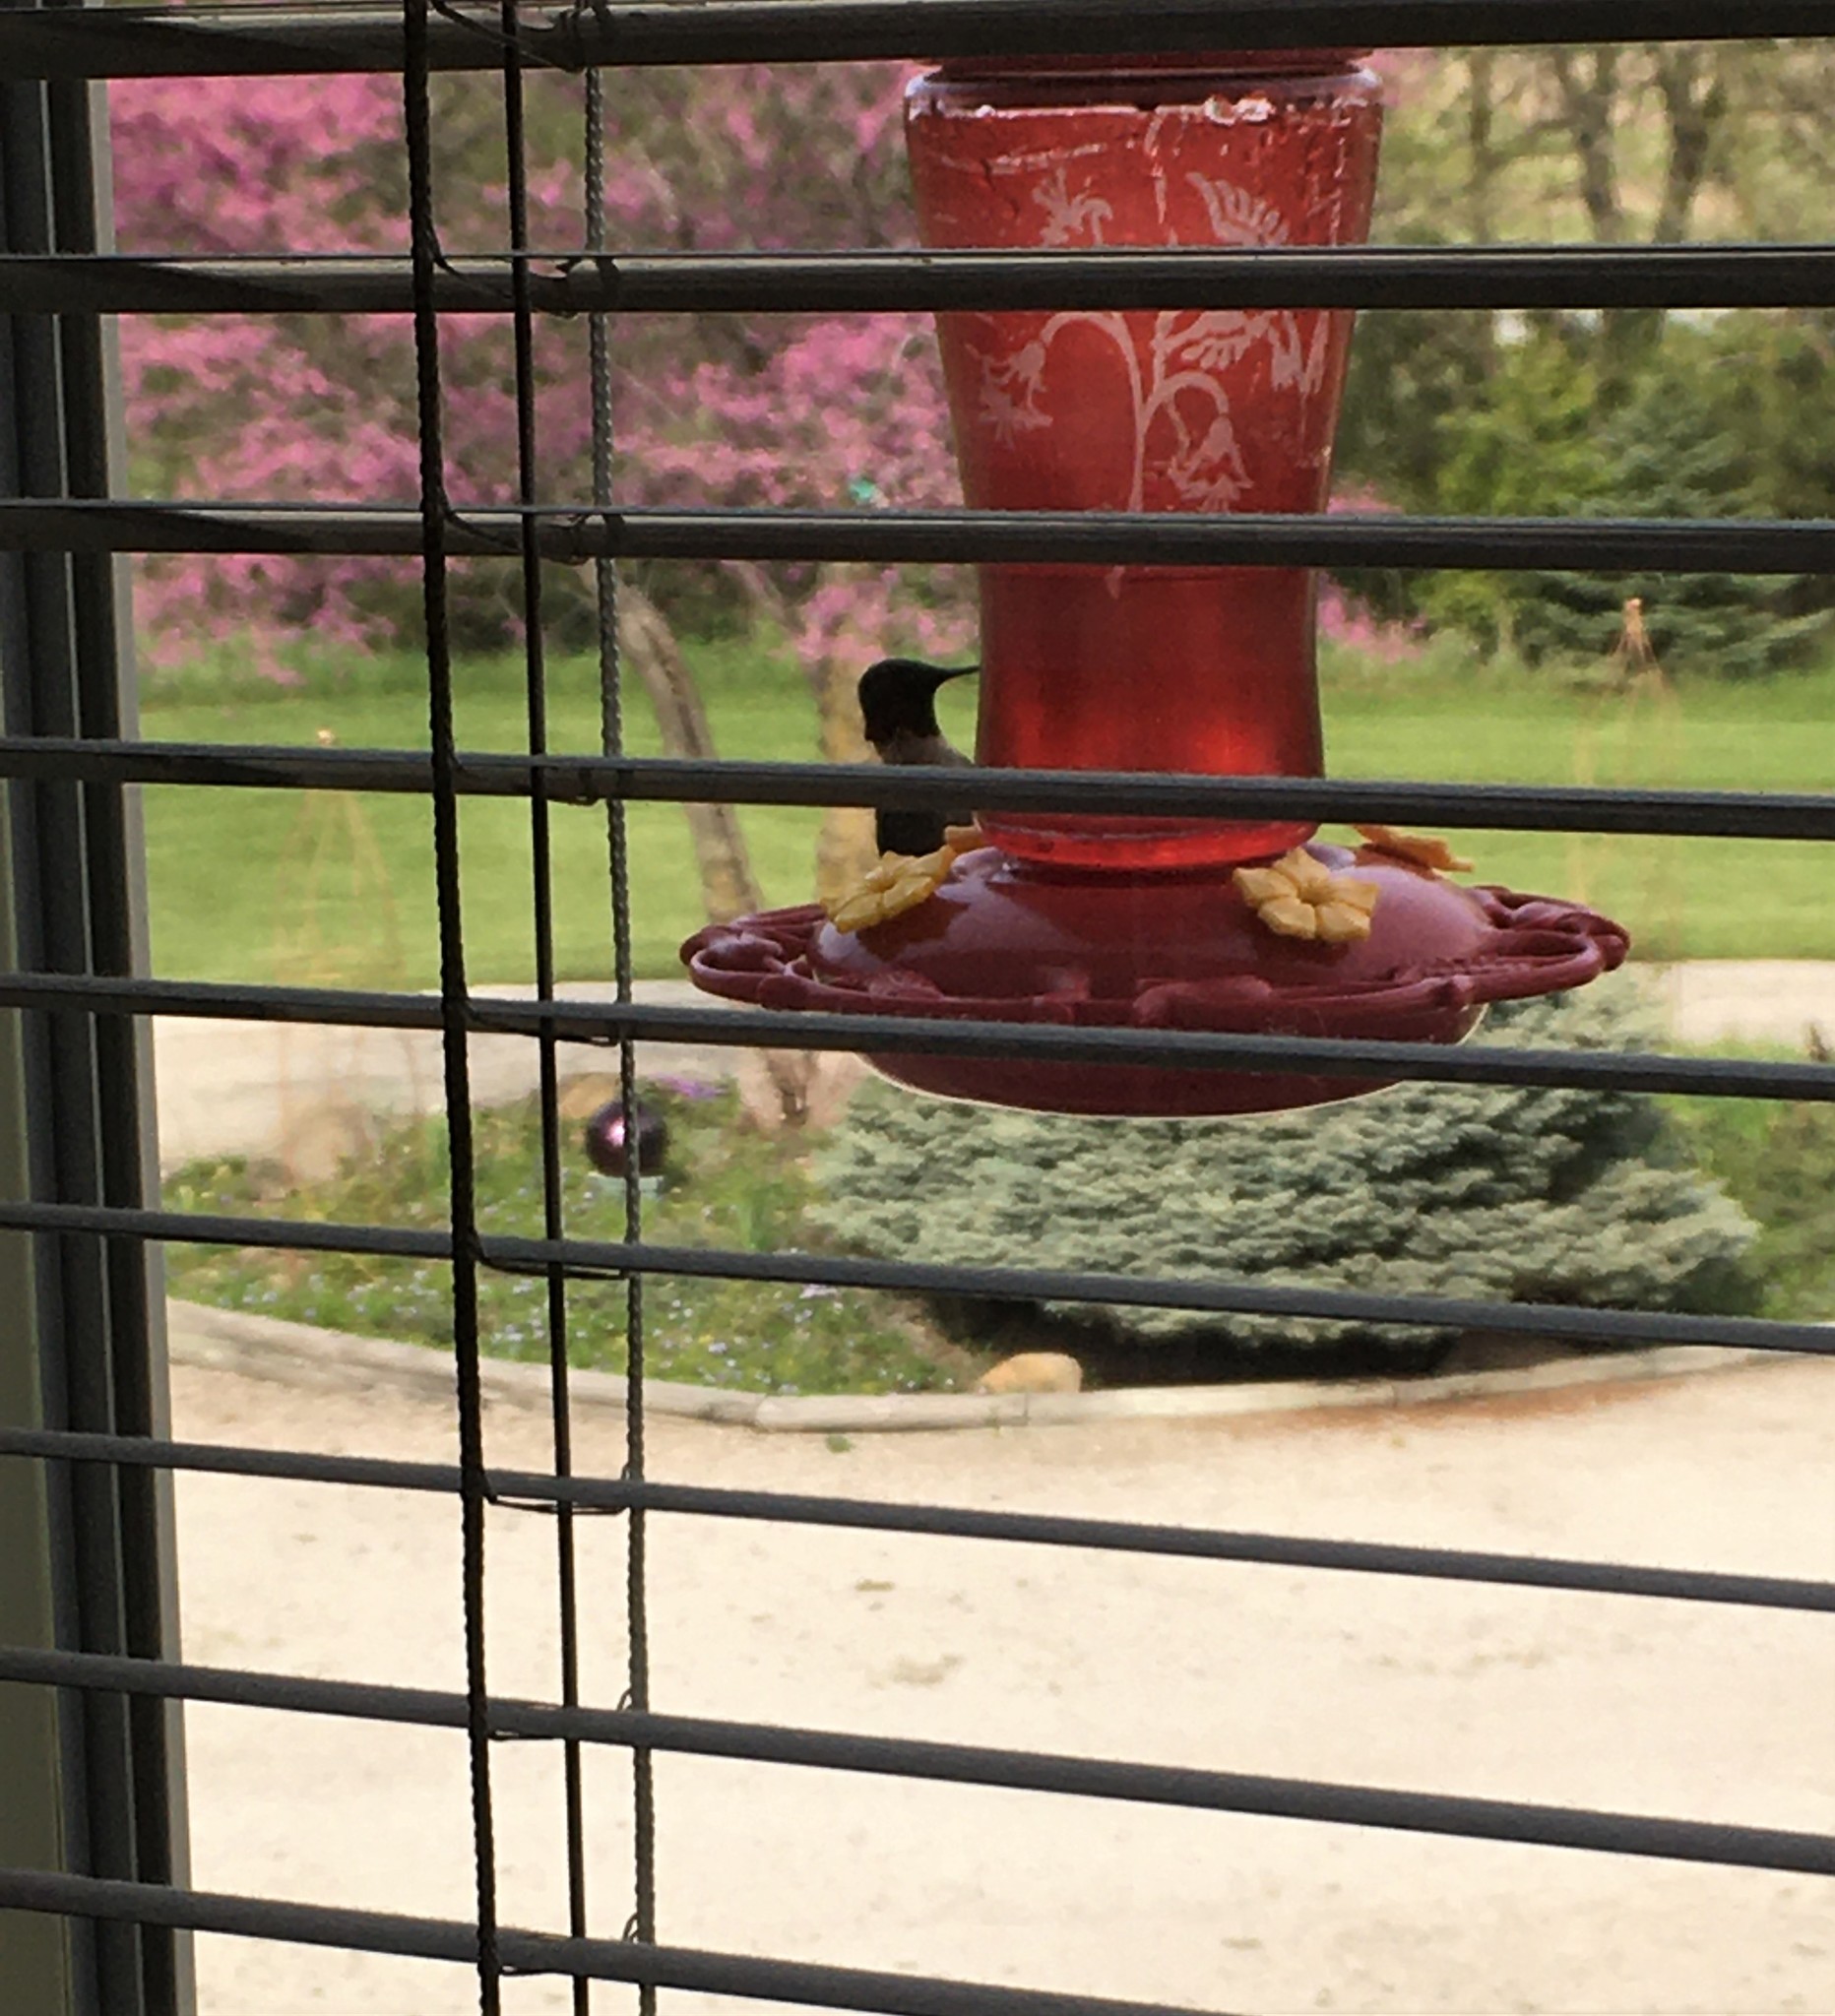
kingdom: Animalia
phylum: Chordata
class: Aves
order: Apodiformes
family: Trochilidae
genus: Archilochus
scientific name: Archilochus colubris
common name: Ruby-throated hummingbird
